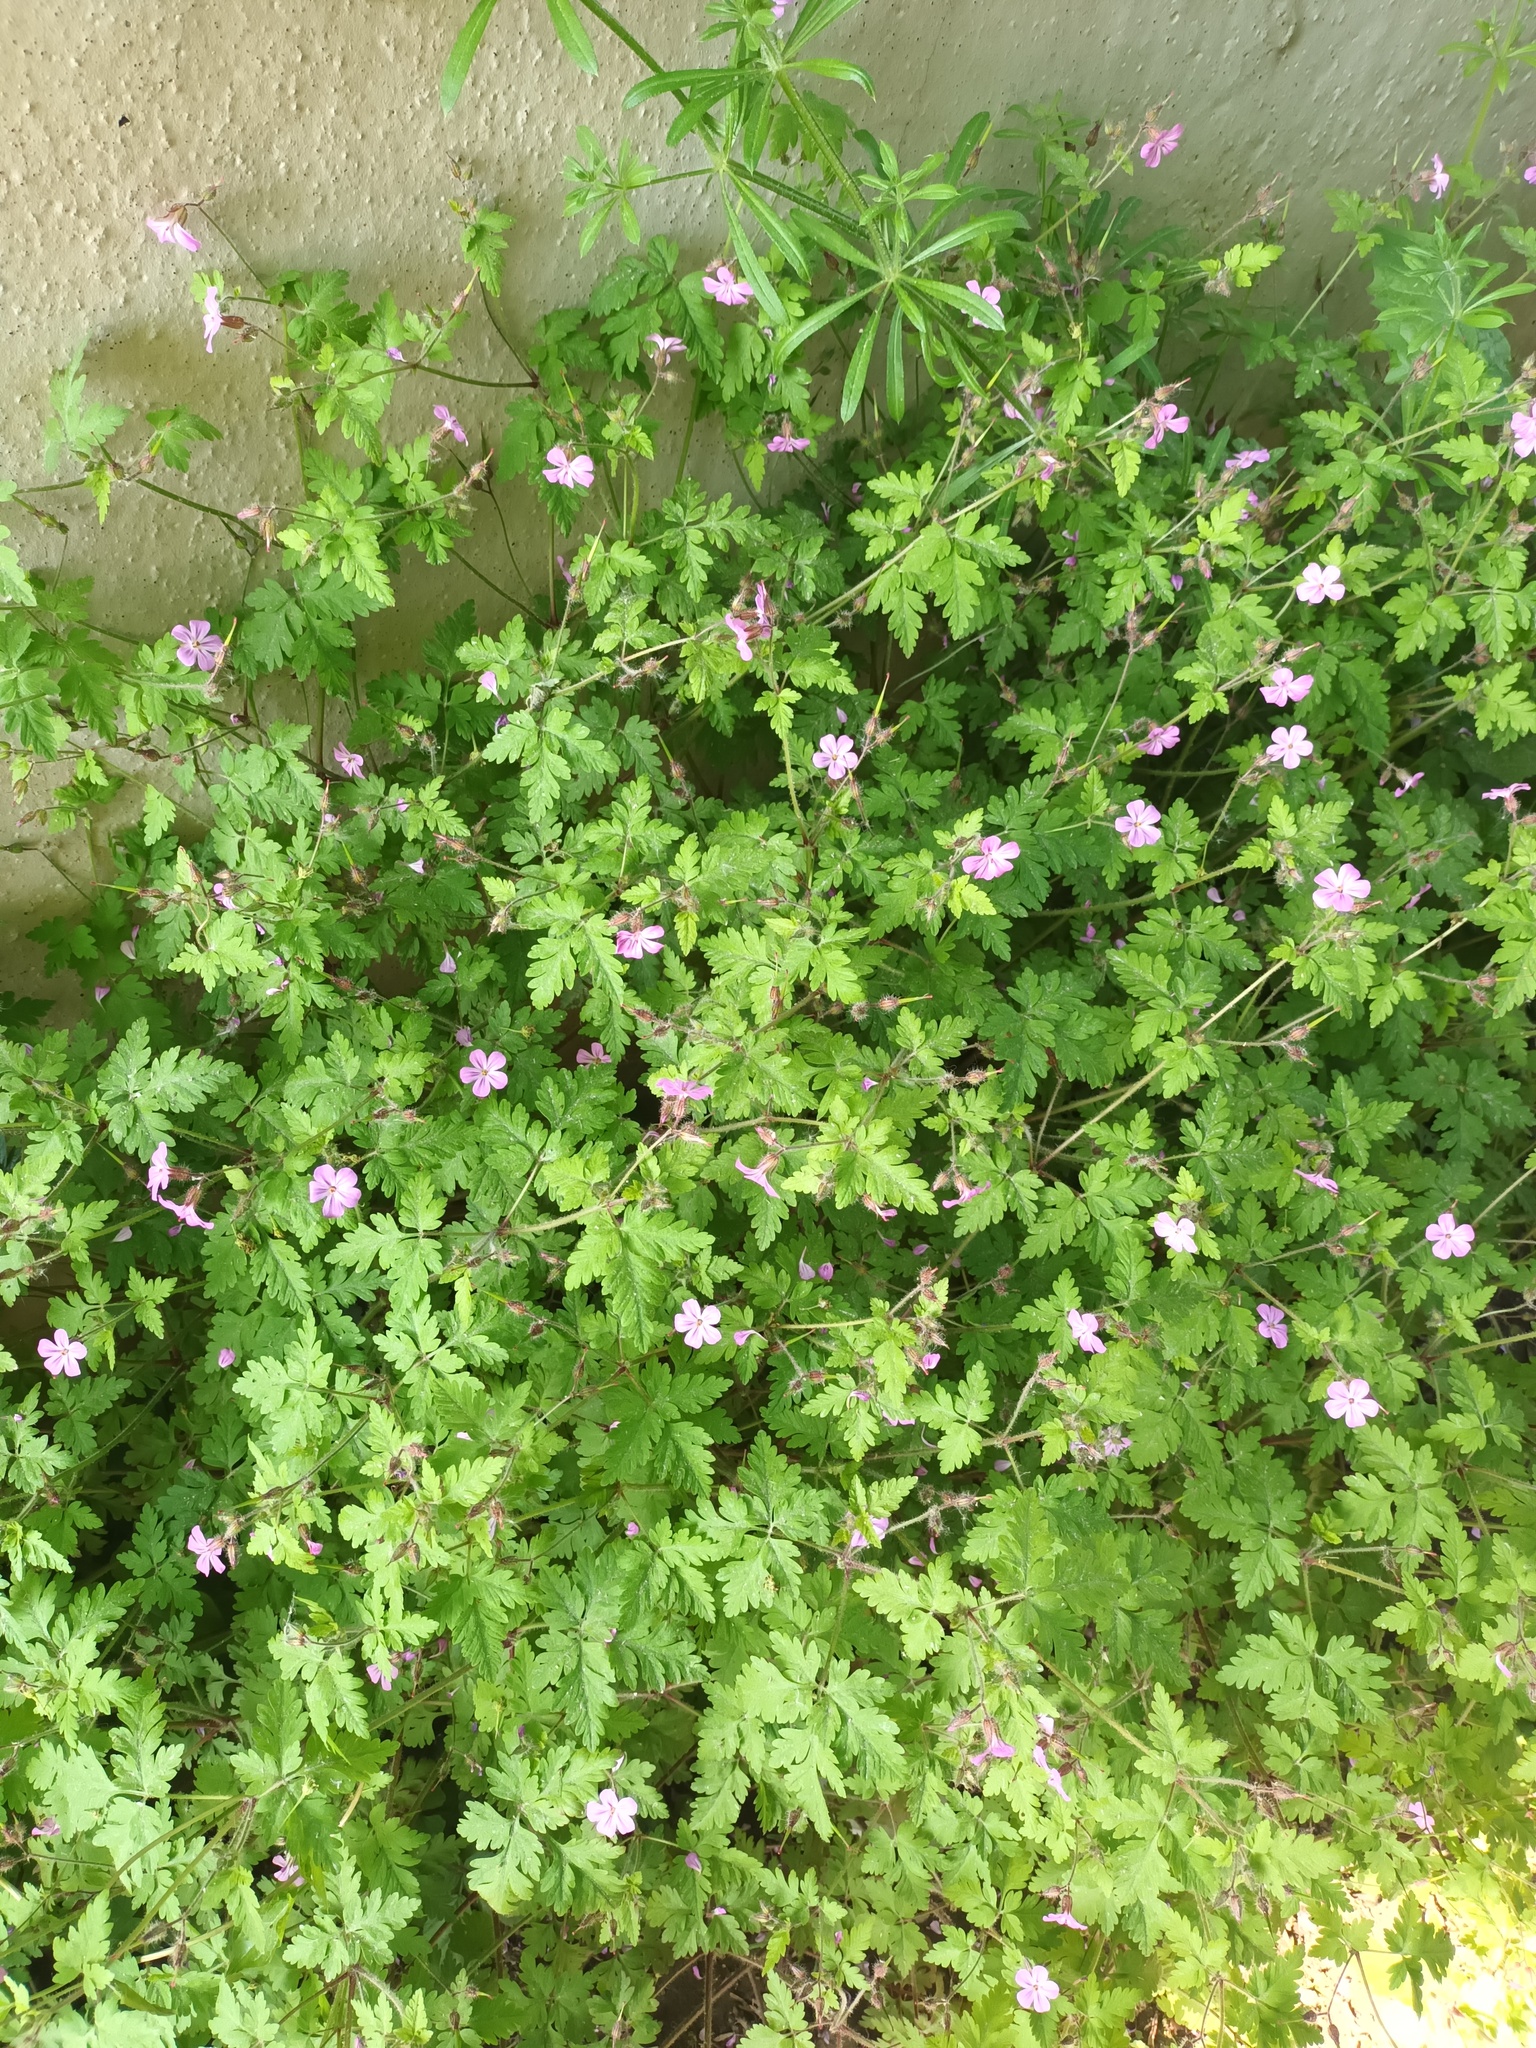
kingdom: Plantae
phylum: Tracheophyta
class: Magnoliopsida
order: Geraniales
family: Geraniaceae
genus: Geranium
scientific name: Geranium robertianum
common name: Herb-robert
